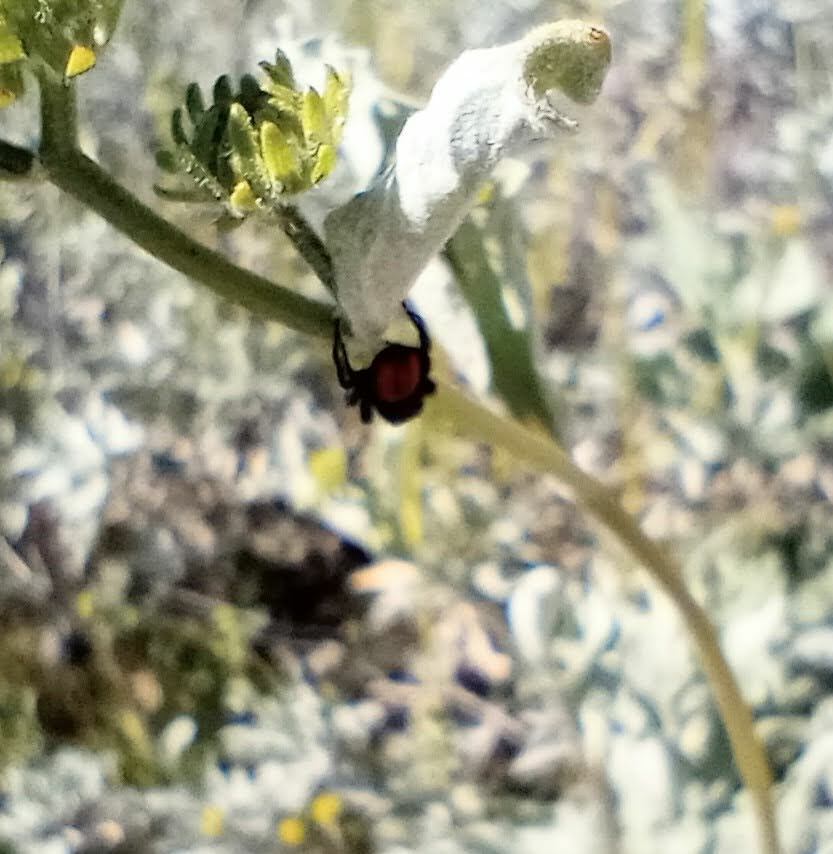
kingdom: Animalia
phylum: Arthropoda
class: Arachnida
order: Araneae
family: Salticidae
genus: Phidippus
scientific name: Phidippus johnsoni
